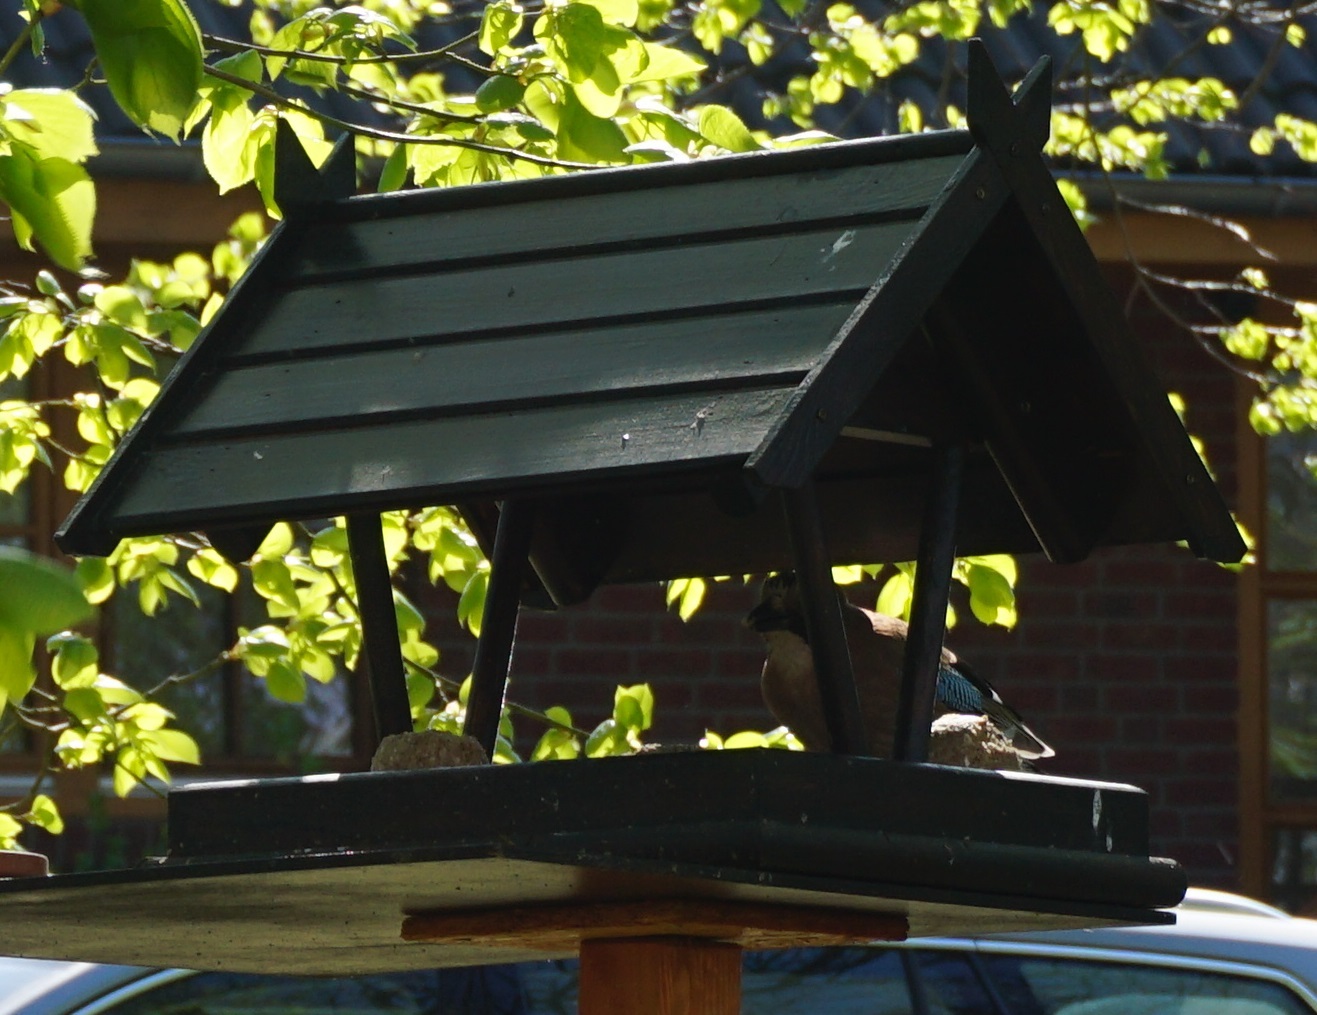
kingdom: Animalia
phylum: Chordata
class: Aves
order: Passeriformes
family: Corvidae
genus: Garrulus
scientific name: Garrulus glandarius
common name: Eurasian jay
